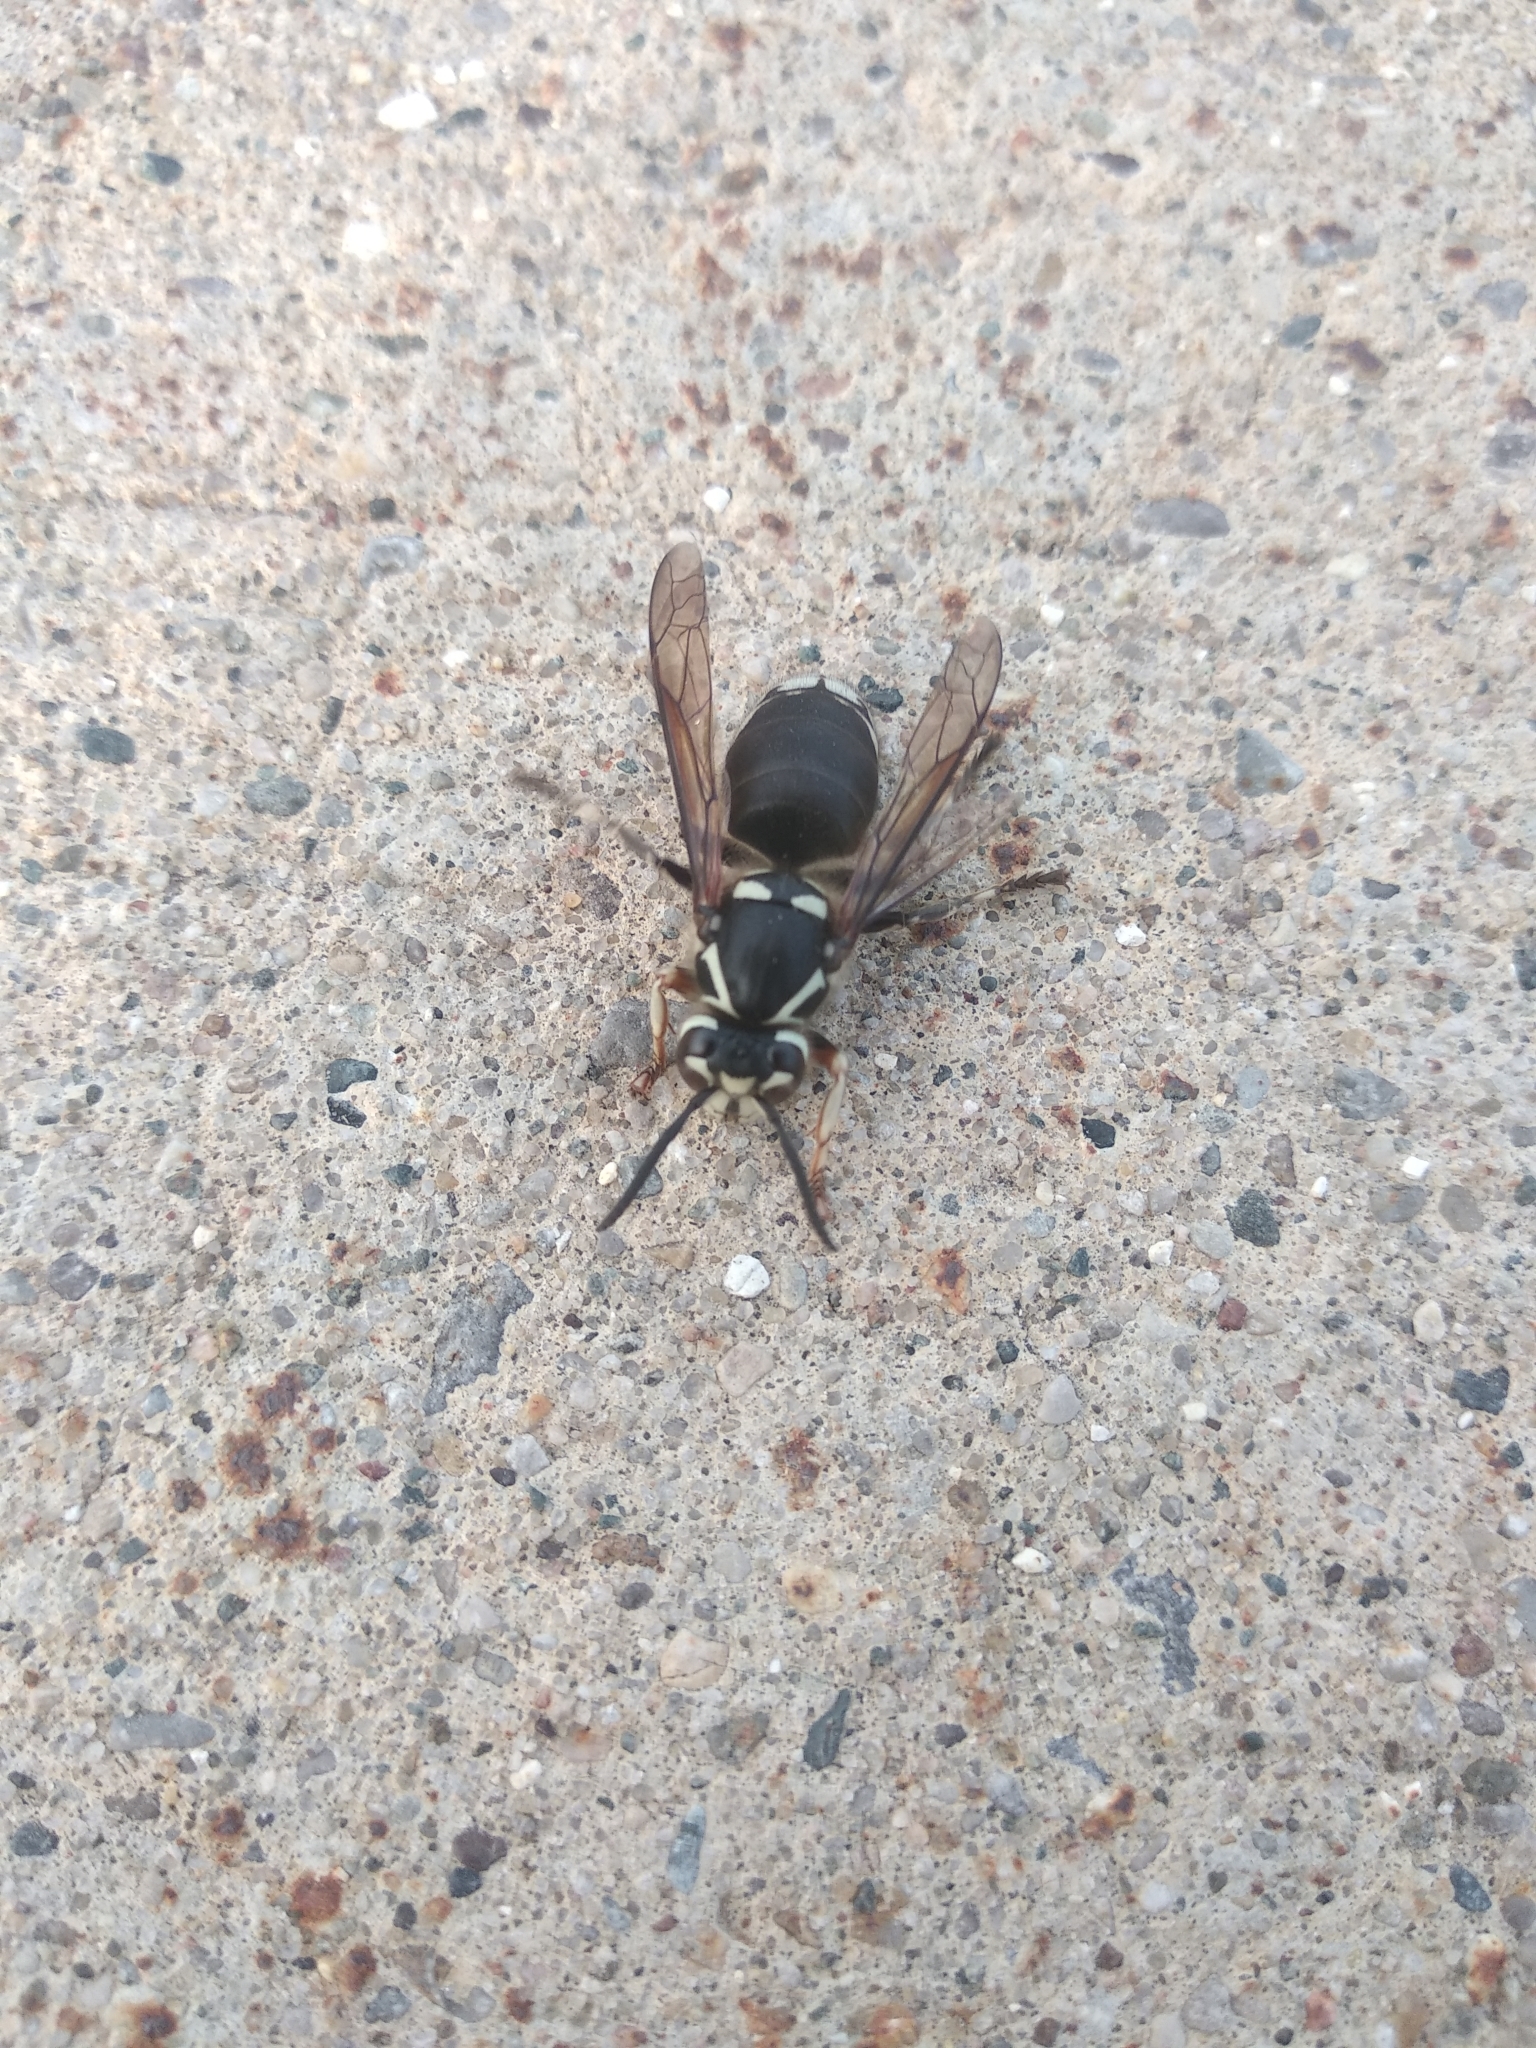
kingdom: Animalia
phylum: Arthropoda
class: Insecta
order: Hymenoptera
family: Vespidae
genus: Dolichovespula
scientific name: Dolichovespula maculata
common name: Bald-faced hornet
